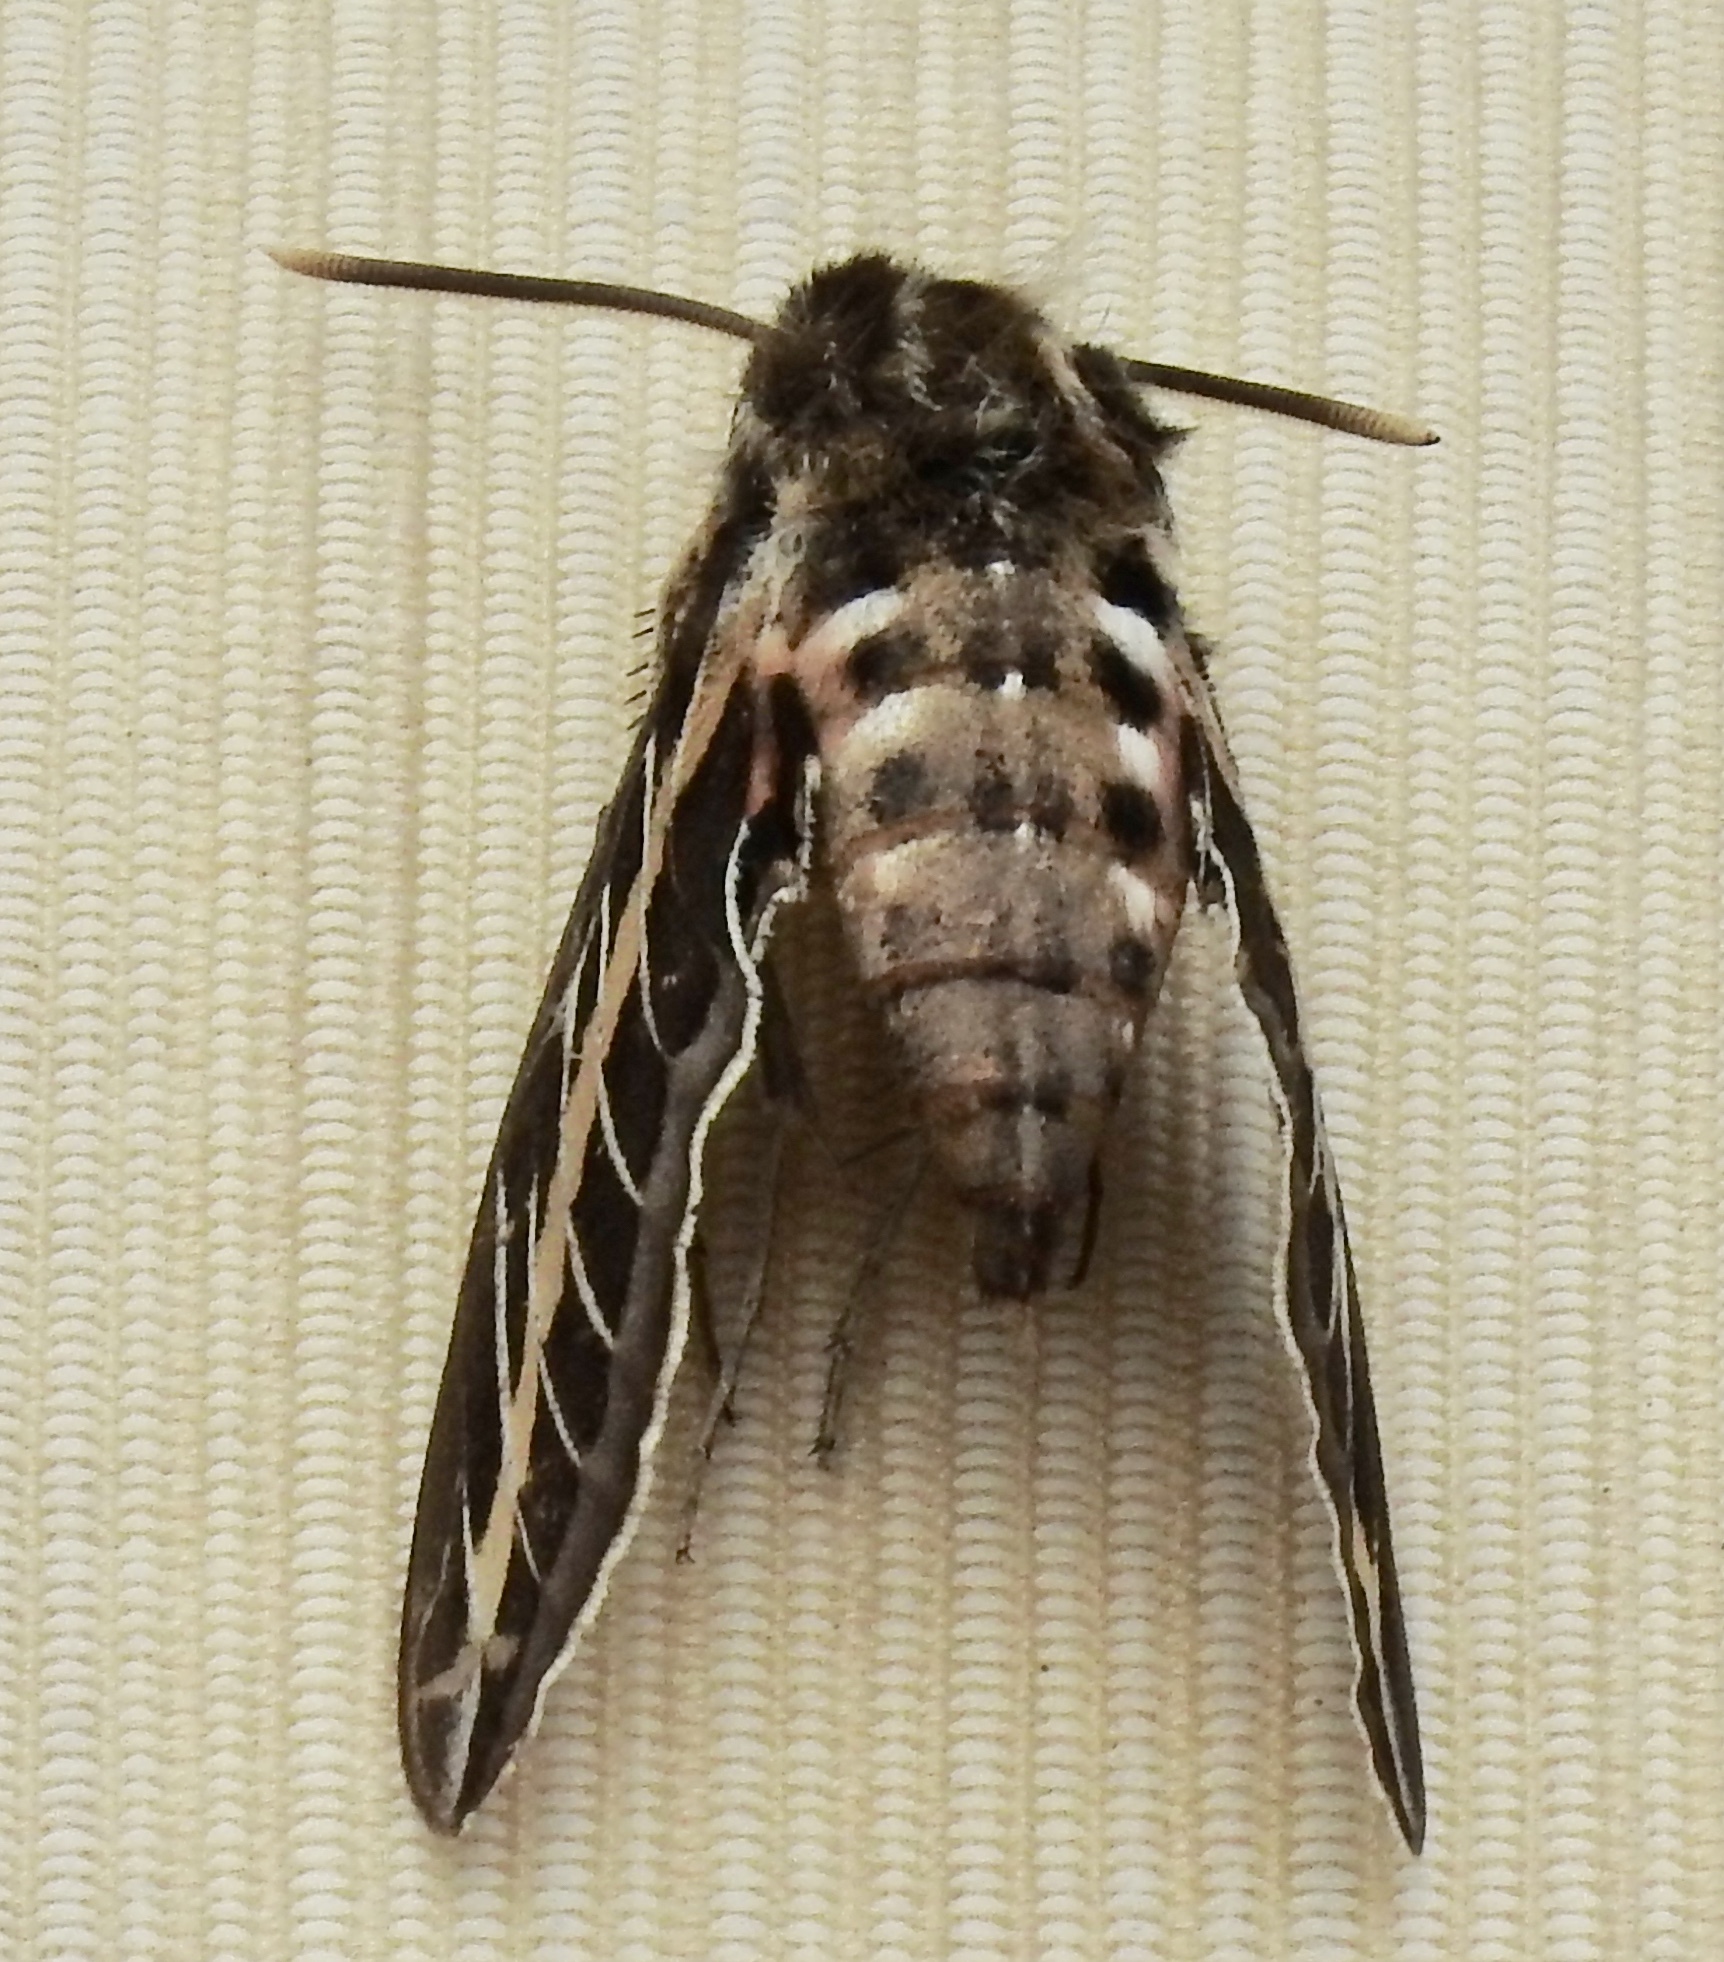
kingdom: Animalia
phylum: Arthropoda
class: Insecta
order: Lepidoptera
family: Sphingidae
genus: Hyles
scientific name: Hyles lineata
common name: White-lined sphinx
